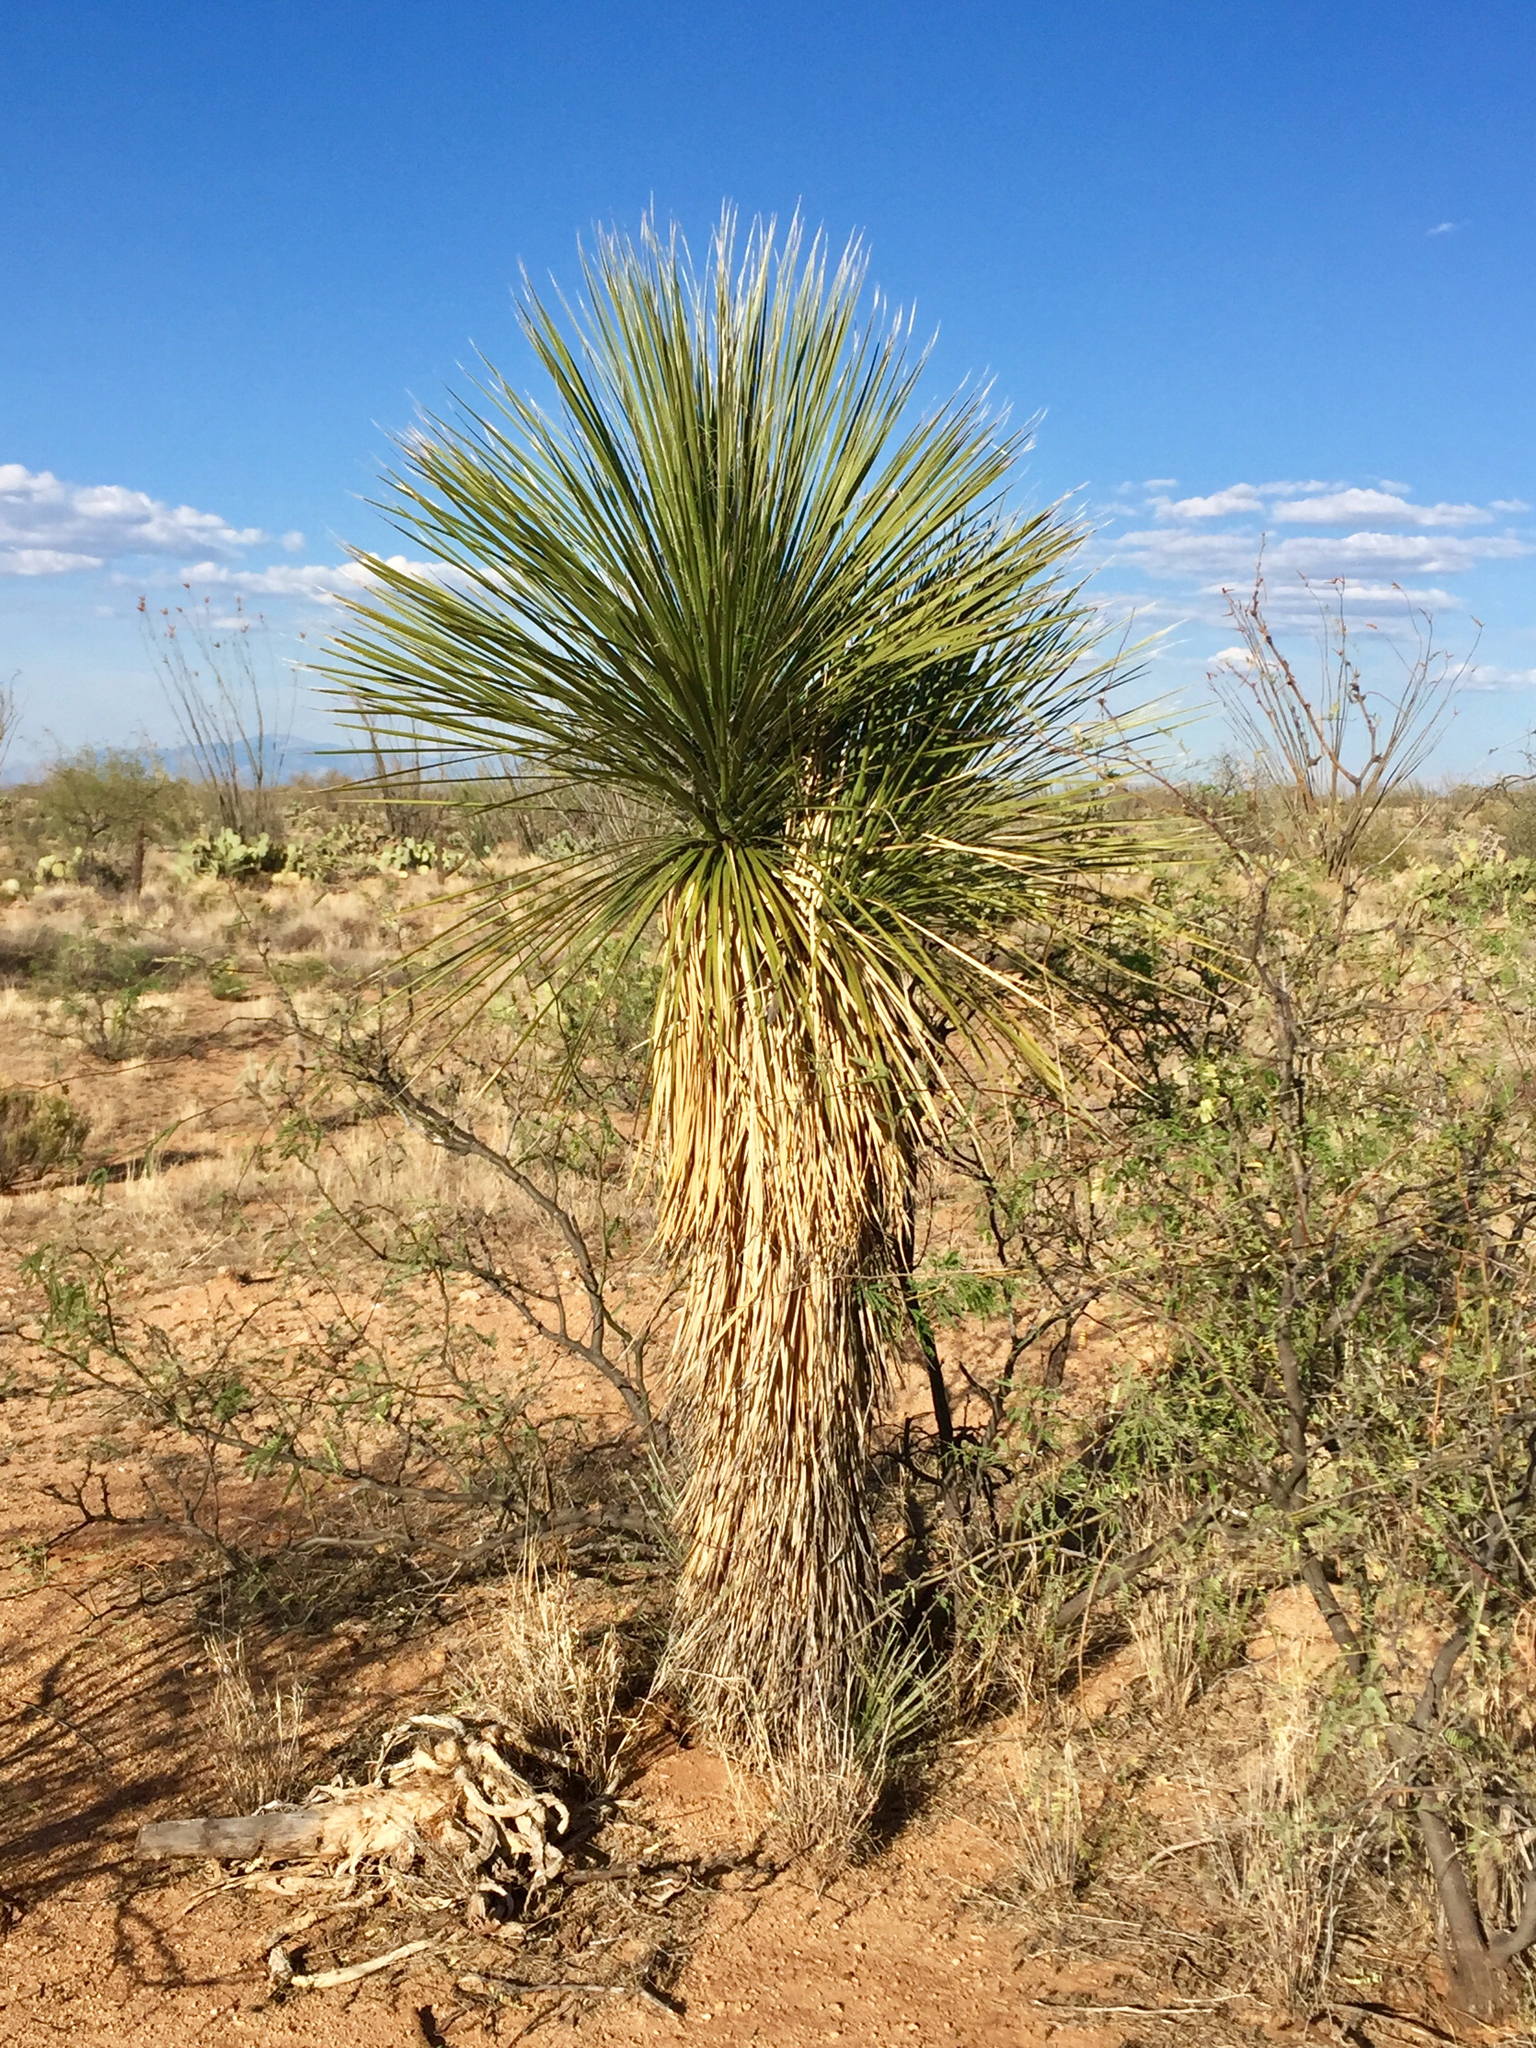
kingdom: Plantae
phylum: Tracheophyta
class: Liliopsida
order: Asparagales
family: Asparagaceae
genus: Yucca
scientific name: Yucca elata
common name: Palmella
